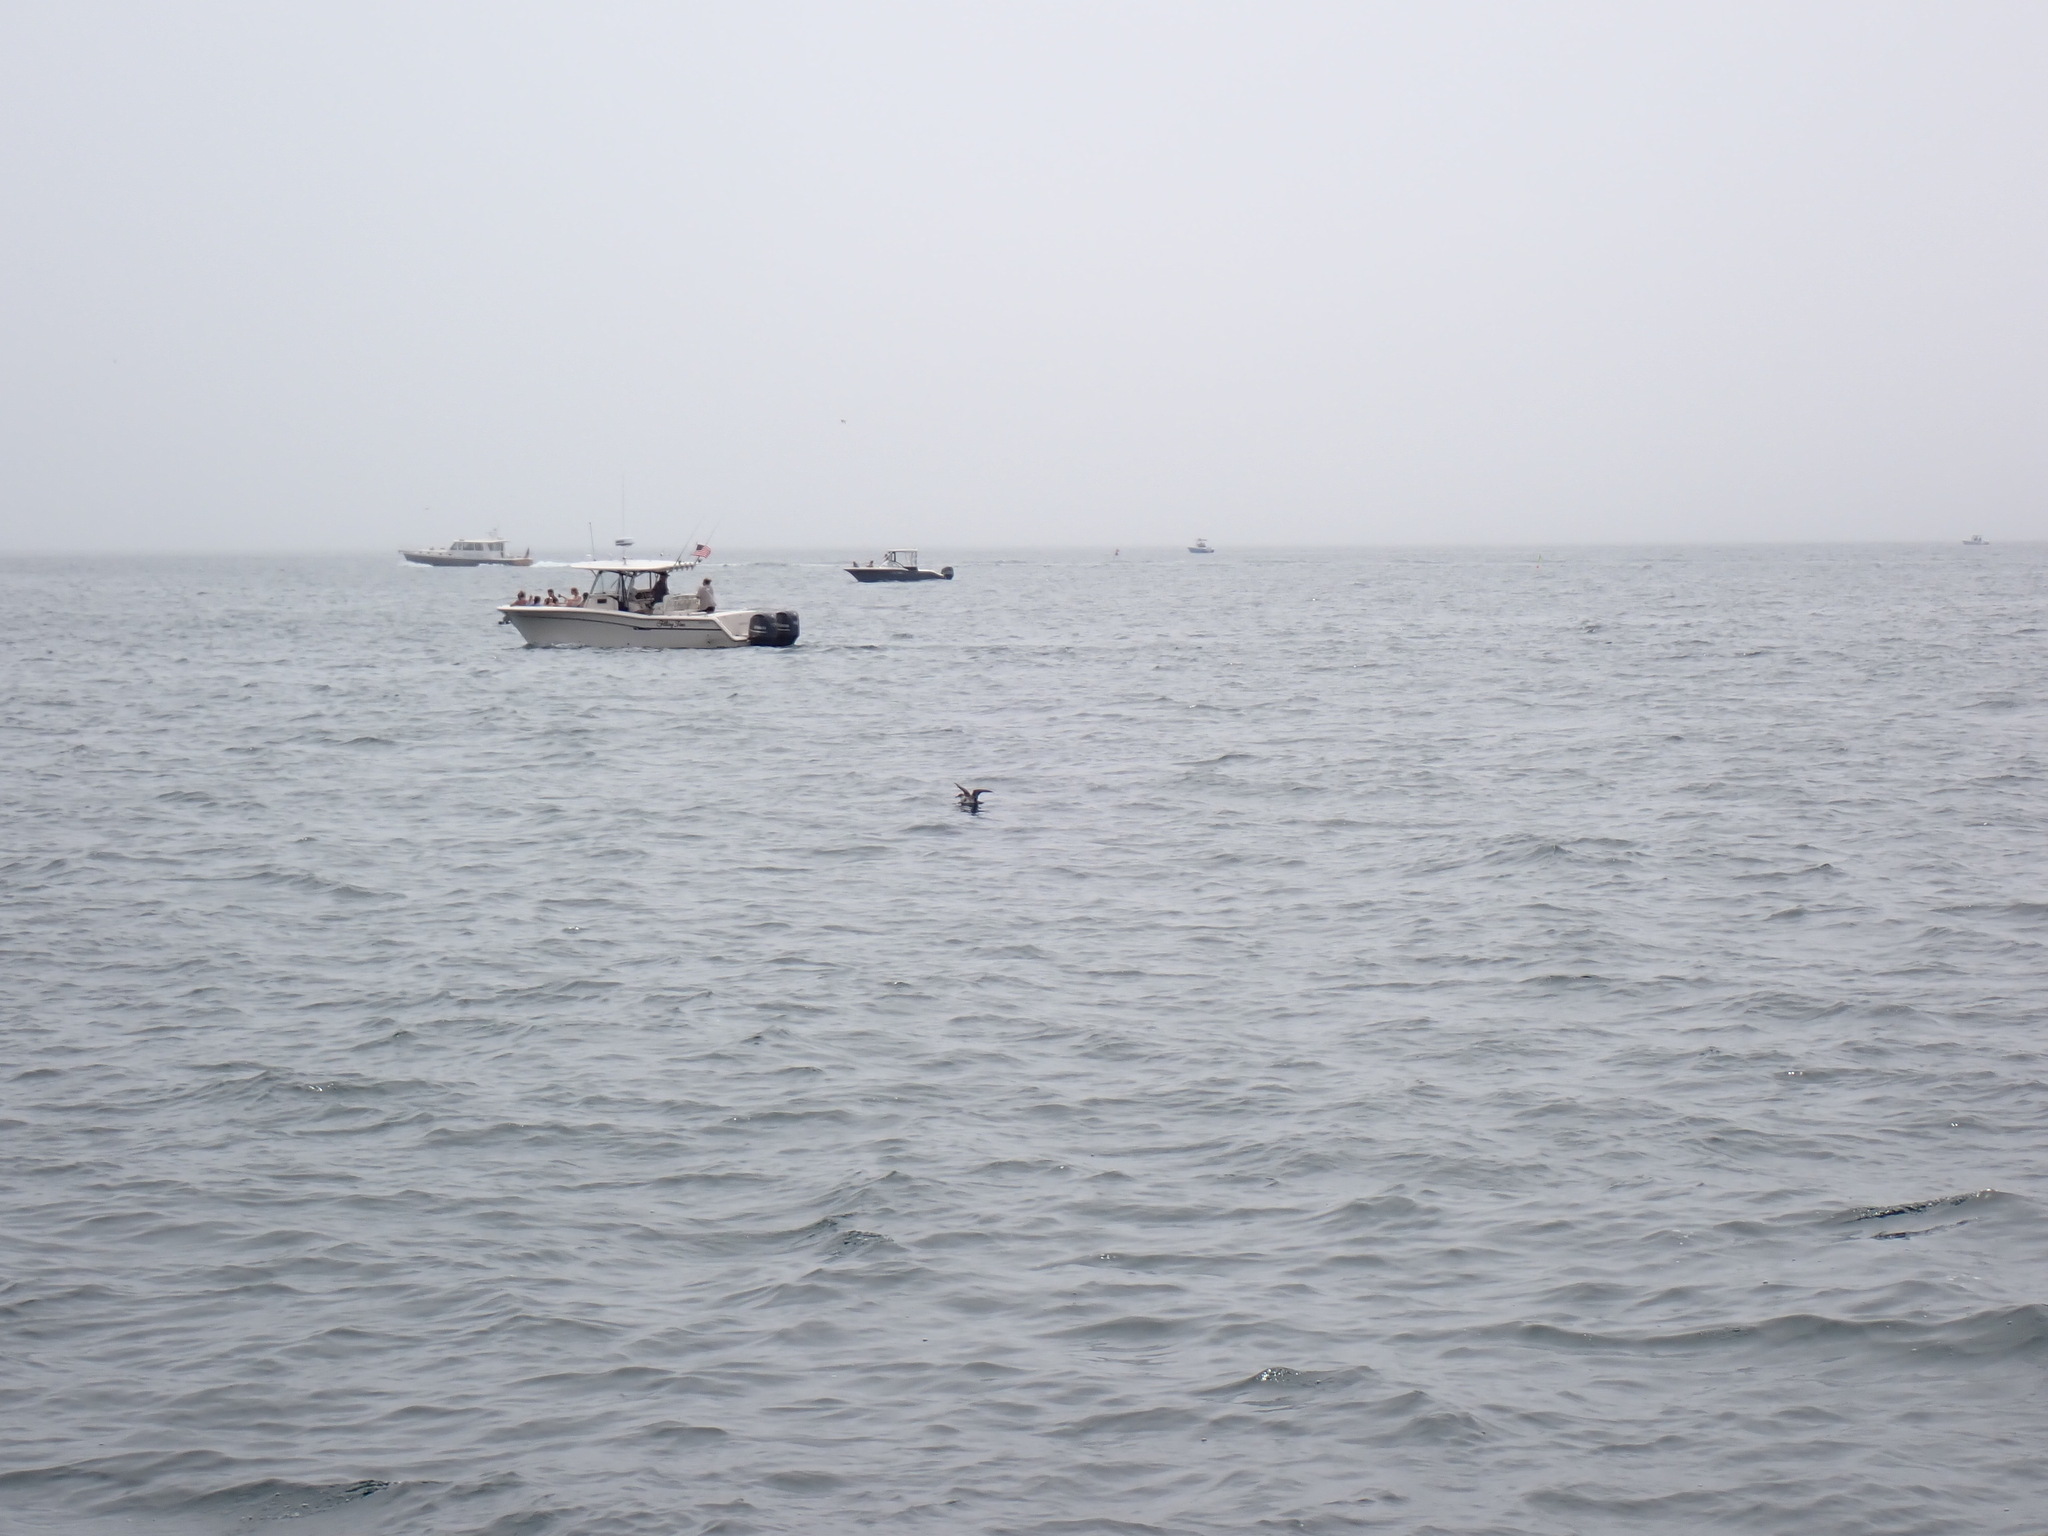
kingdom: Animalia
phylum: Chordata
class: Aves
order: Procellariiformes
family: Procellariidae
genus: Puffinus
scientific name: Puffinus gravis
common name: Great shearwater
